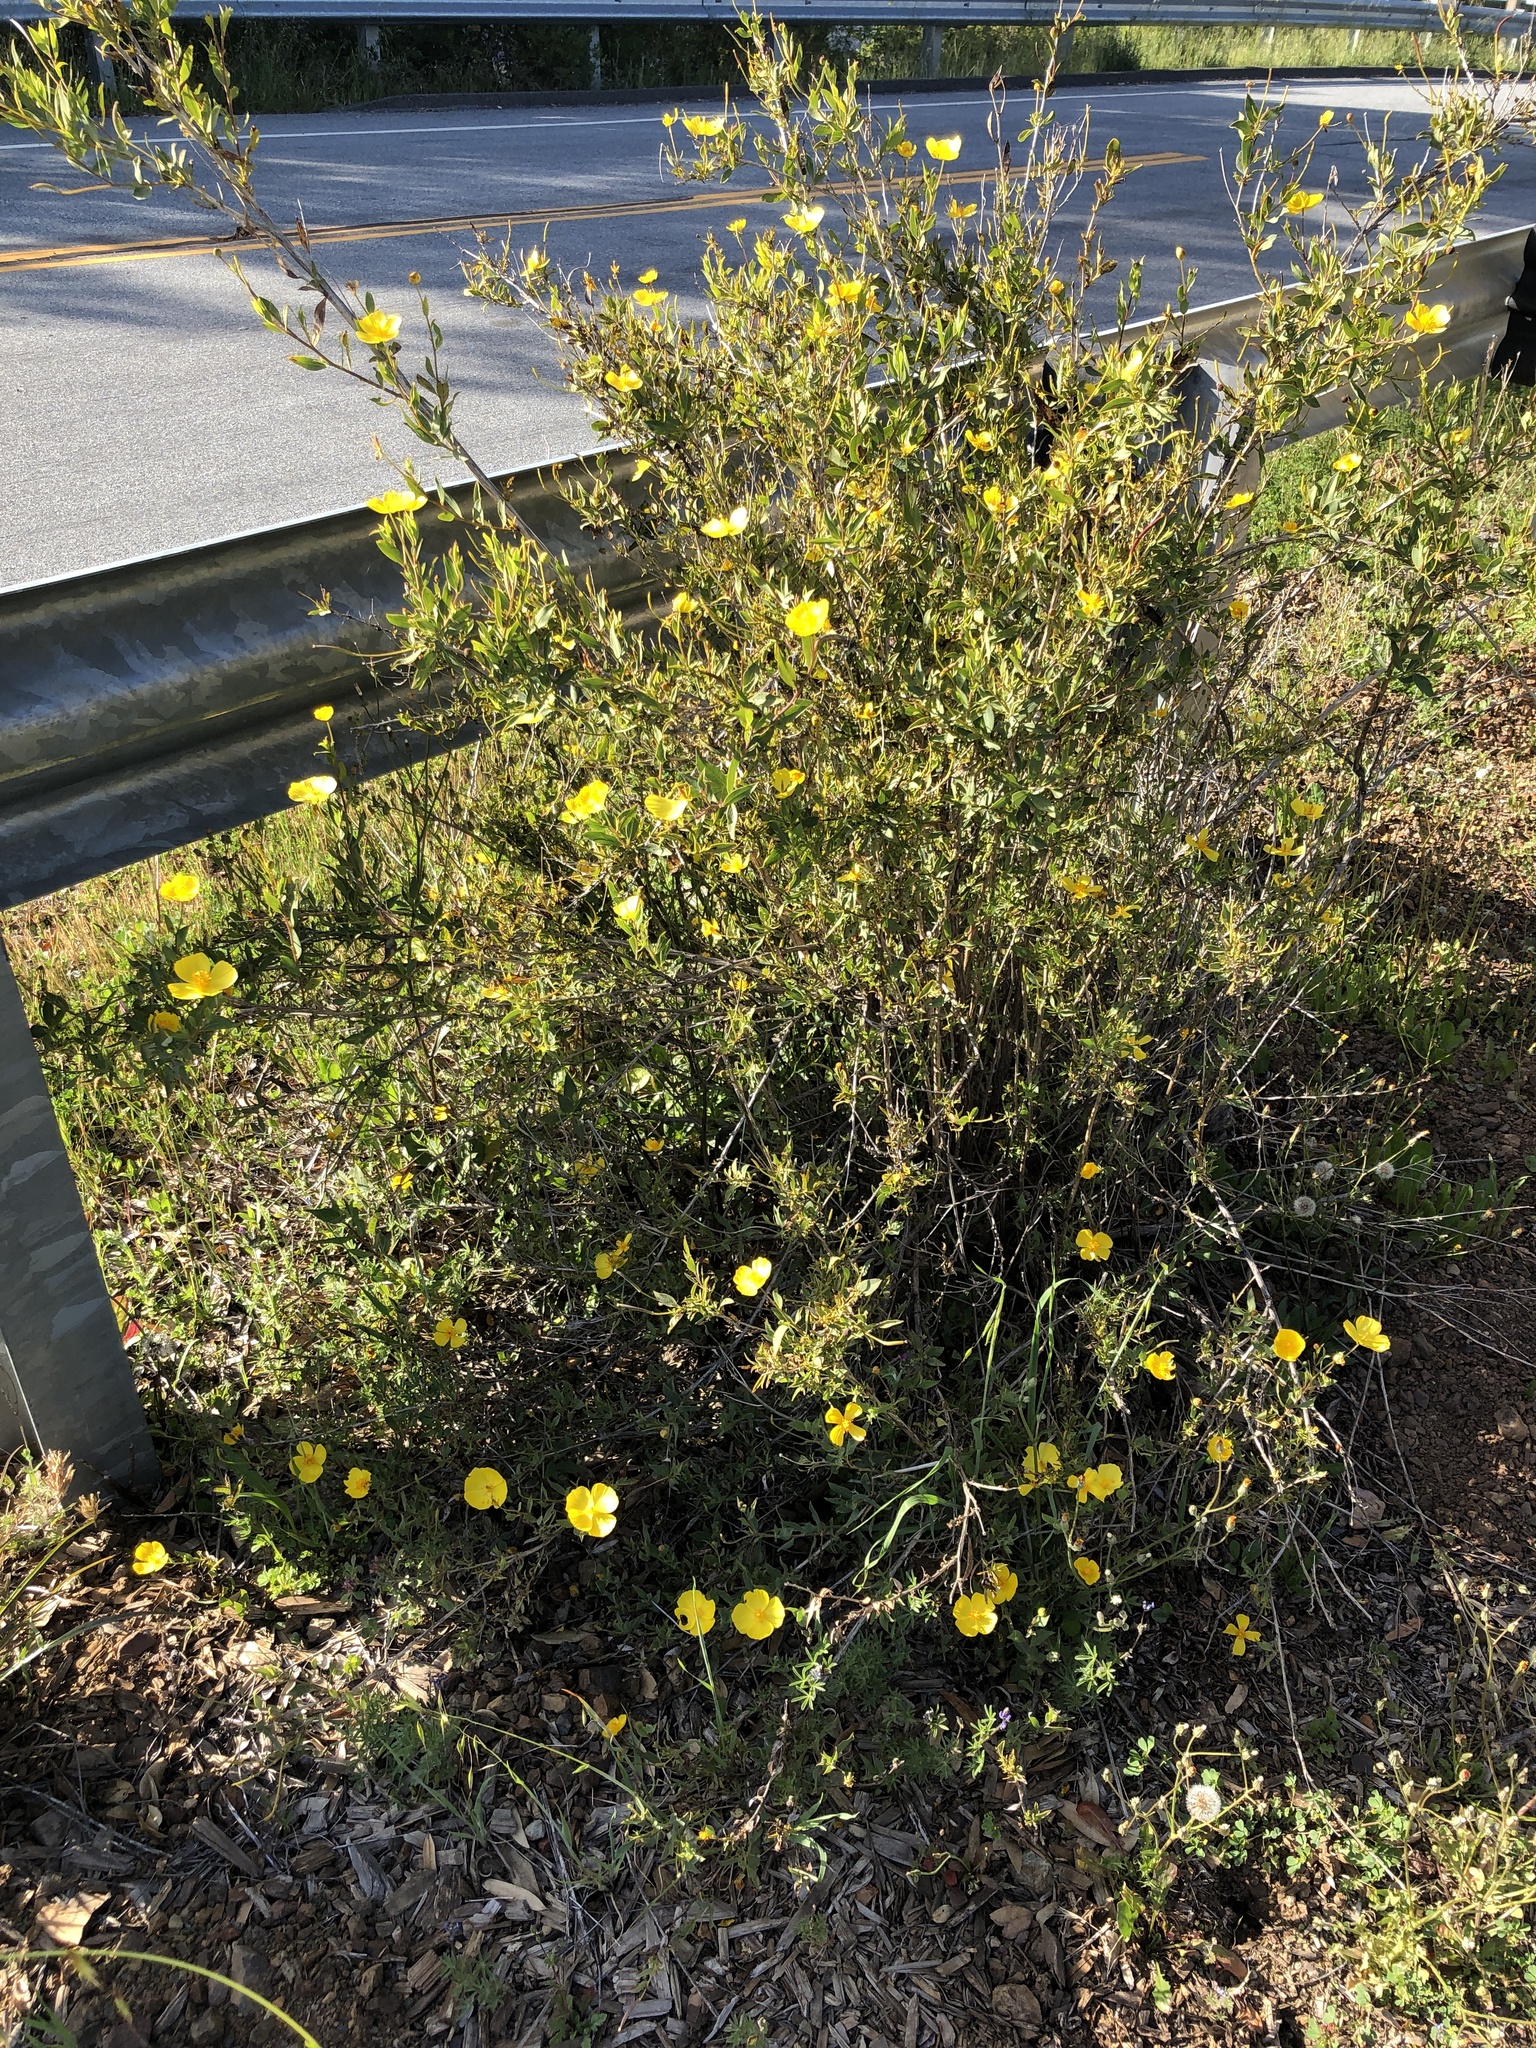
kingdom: Plantae
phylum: Tracheophyta
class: Magnoliopsida
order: Ranunculales
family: Papaveraceae
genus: Dendromecon
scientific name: Dendromecon rigida
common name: Tree poppy
